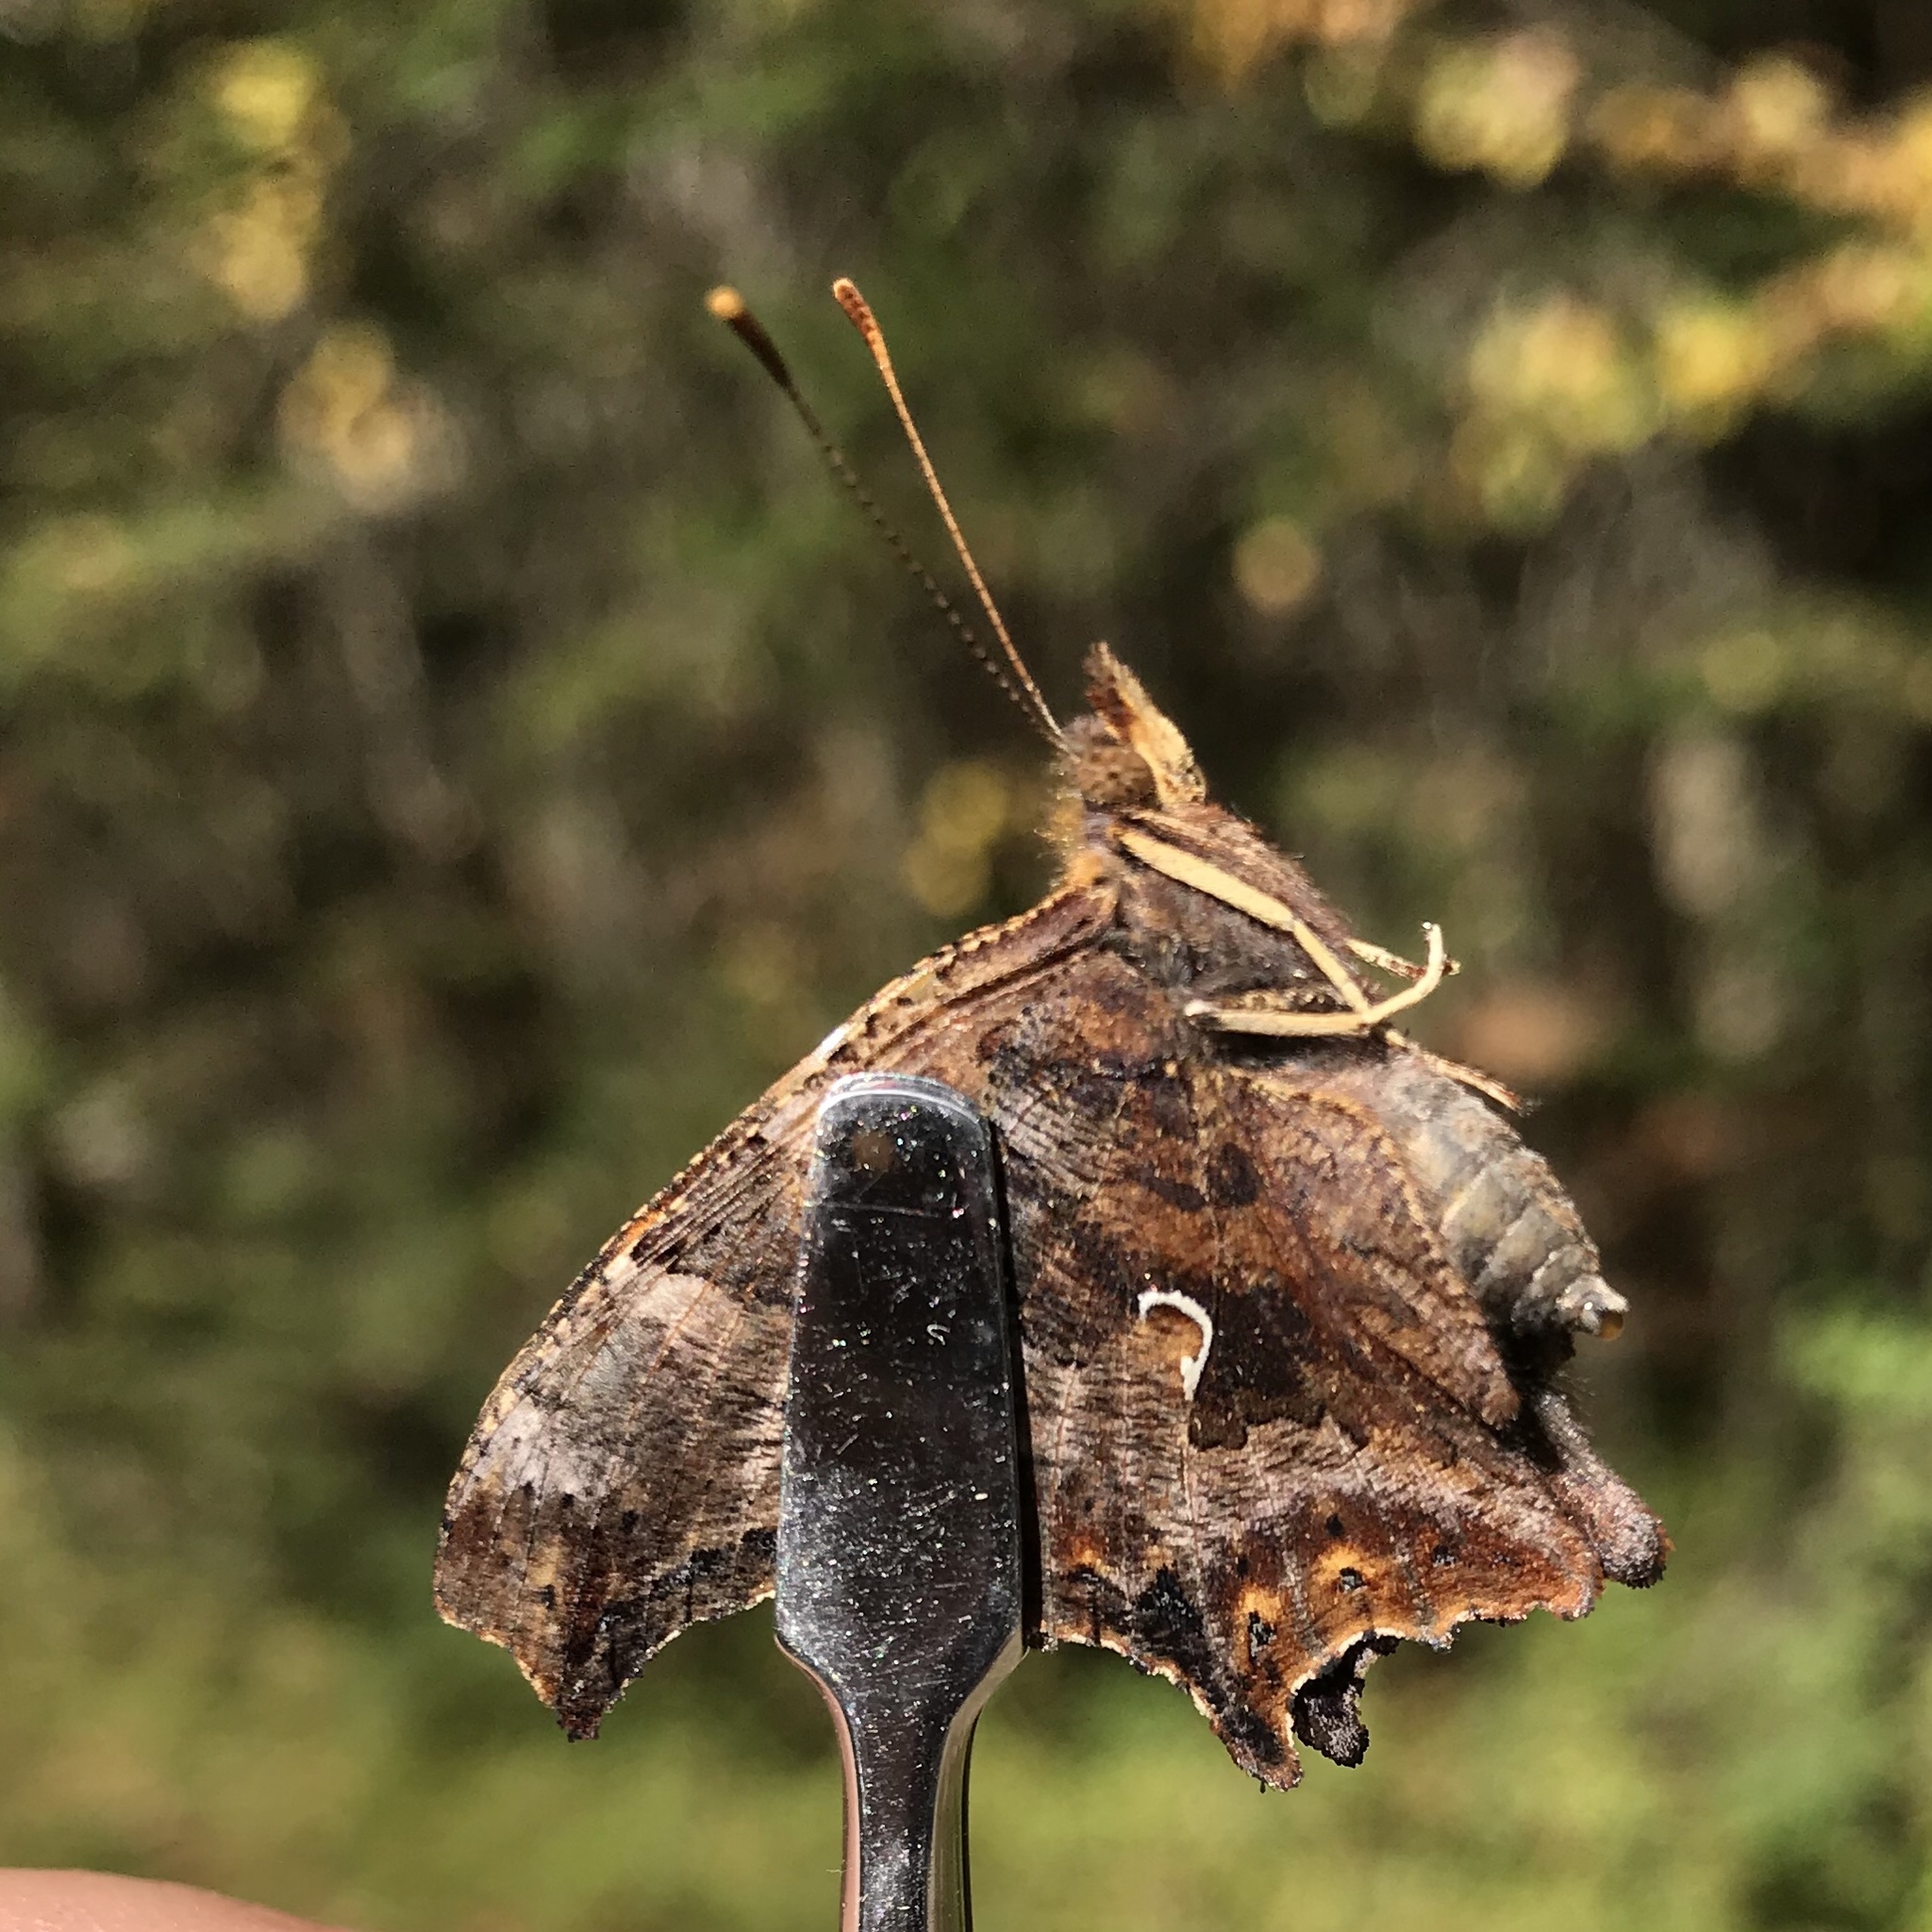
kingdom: Animalia
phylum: Arthropoda
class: Insecta
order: Lepidoptera
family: Nymphalidae
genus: Polygonia
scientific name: Polygonia comma
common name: Eastern comma
